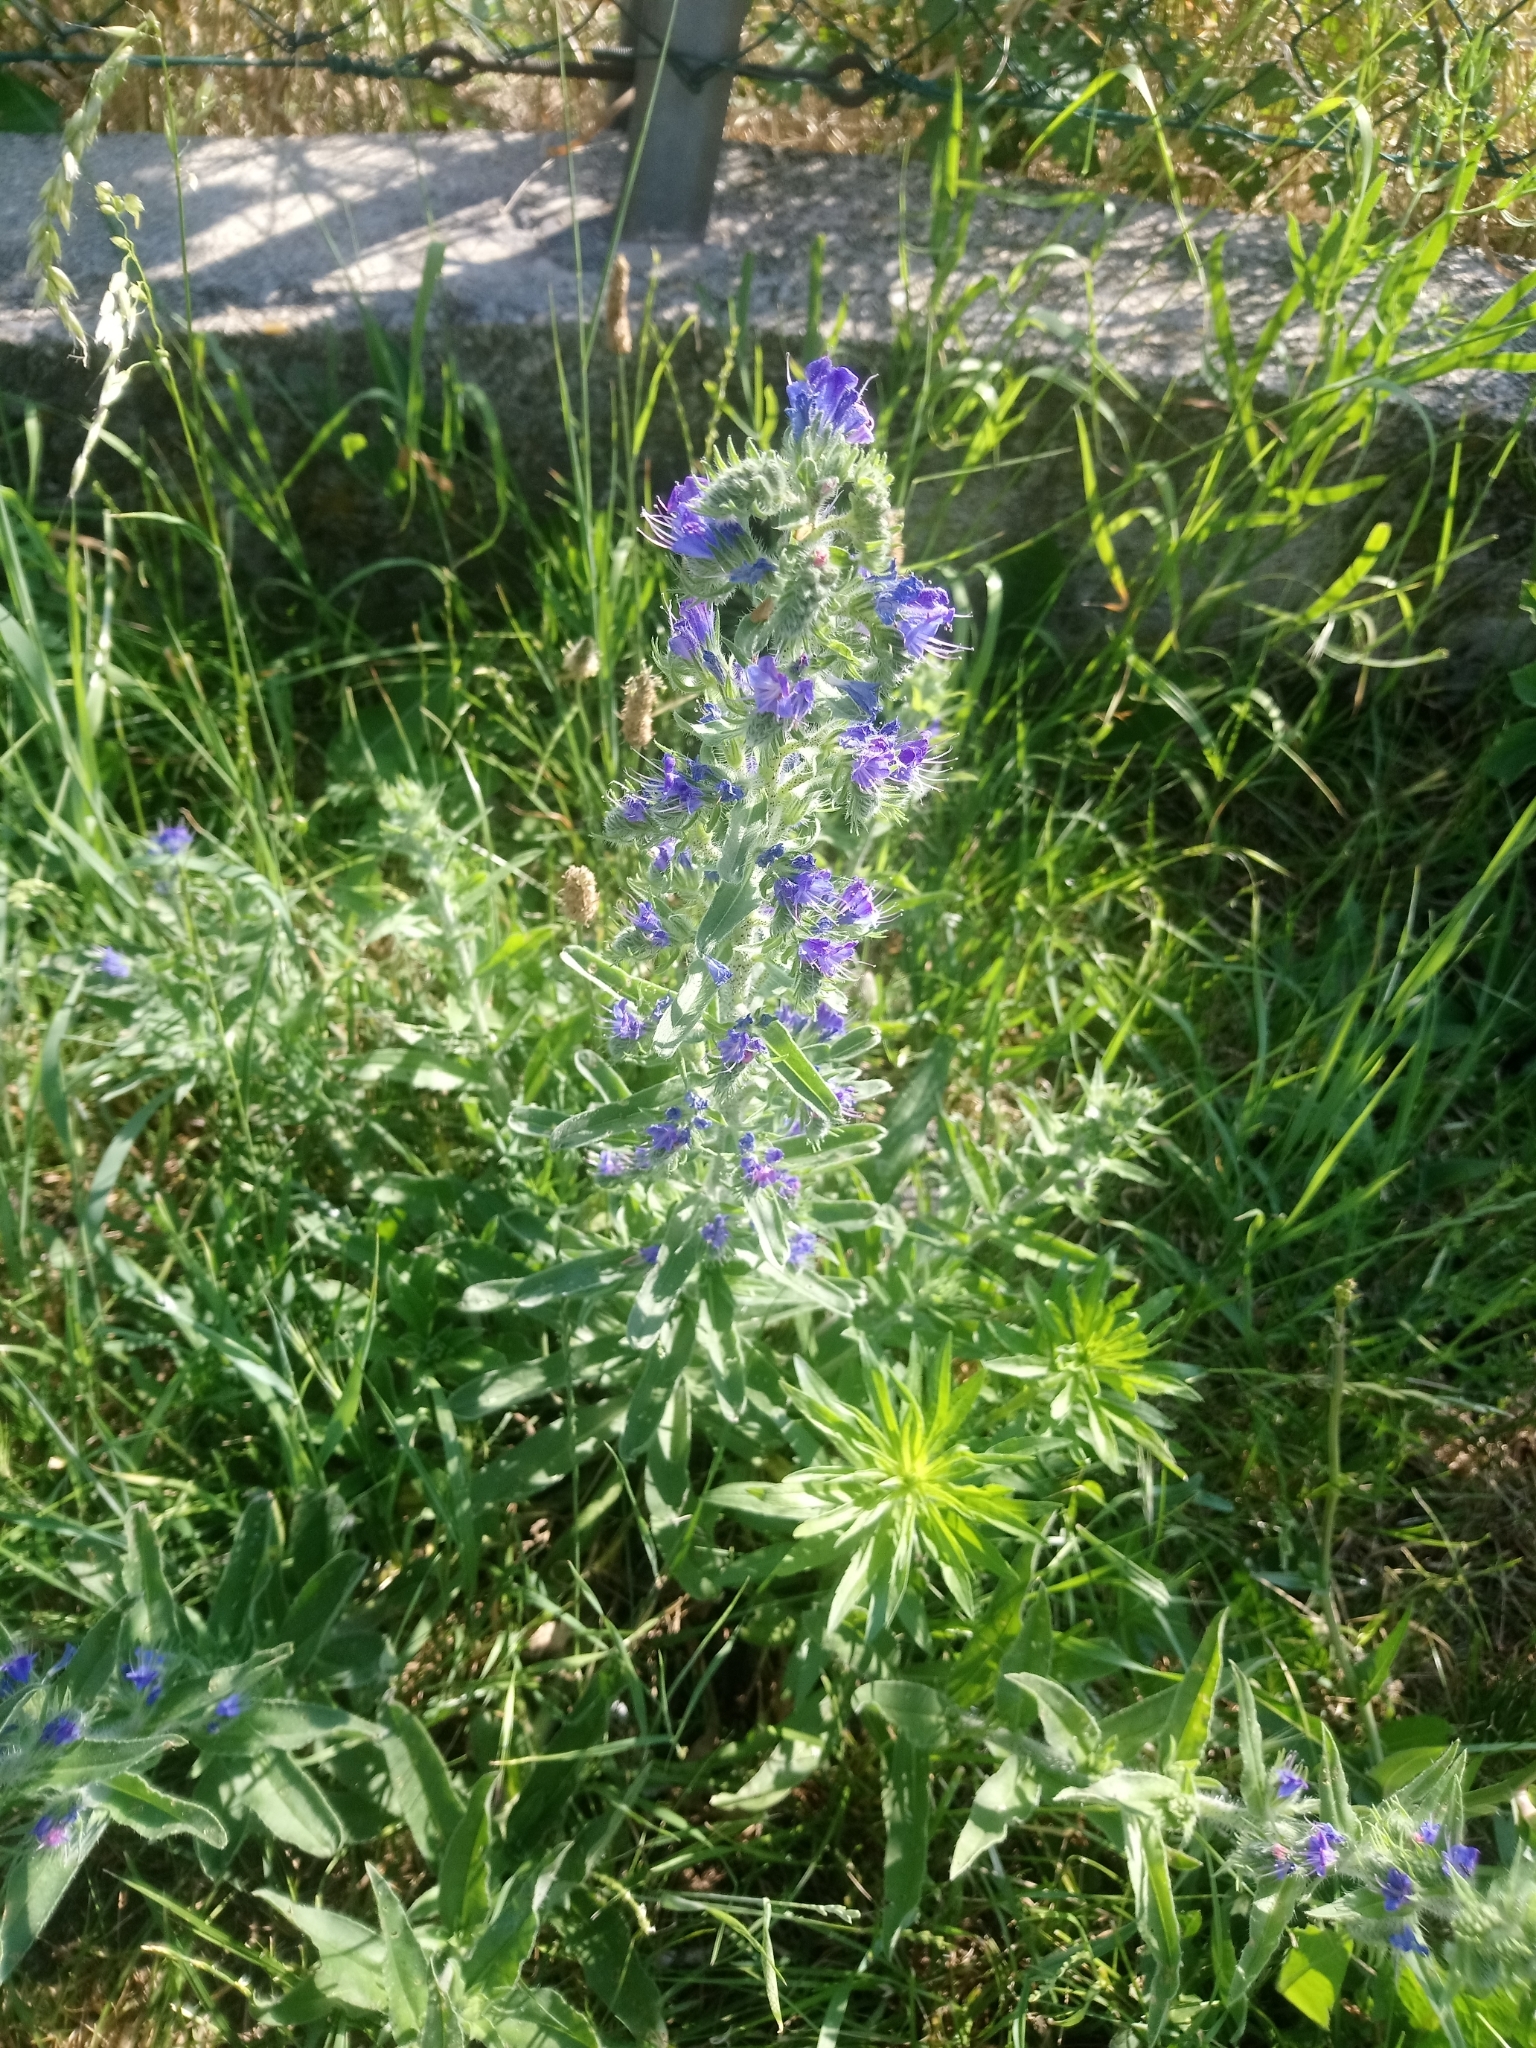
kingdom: Plantae
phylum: Tracheophyta
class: Magnoliopsida
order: Boraginales
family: Boraginaceae
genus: Echium
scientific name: Echium vulgare
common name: Common viper's bugloss
